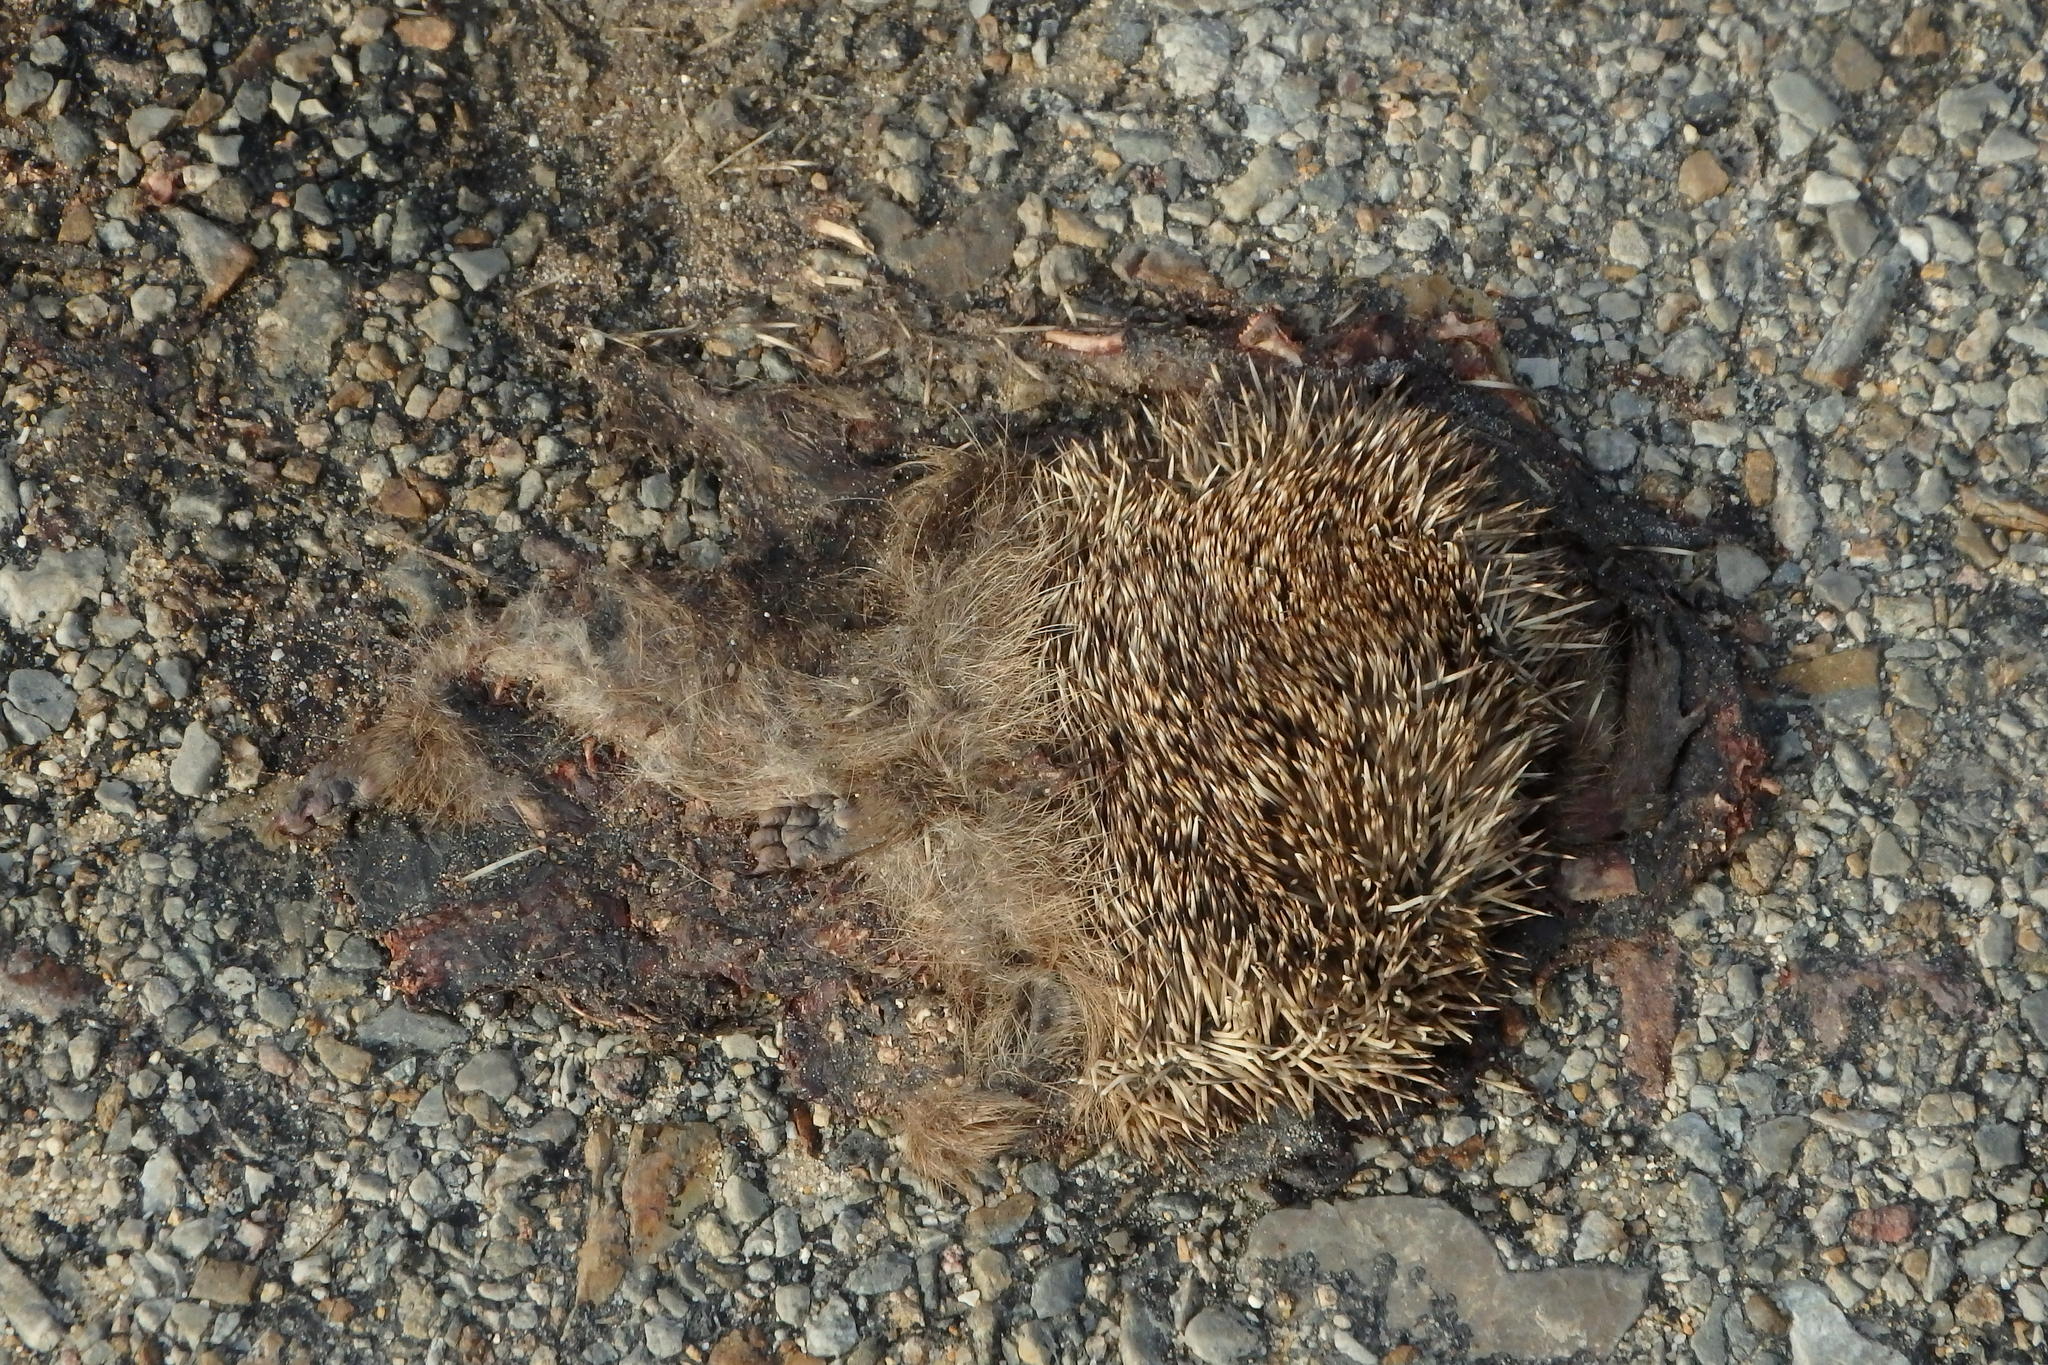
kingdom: Animalia
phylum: Chordata
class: Mammalia
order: Erinaceomorpha
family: Erinaceidae
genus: Erinaceus
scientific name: Erinaceus europaeus
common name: West european hedgehog
